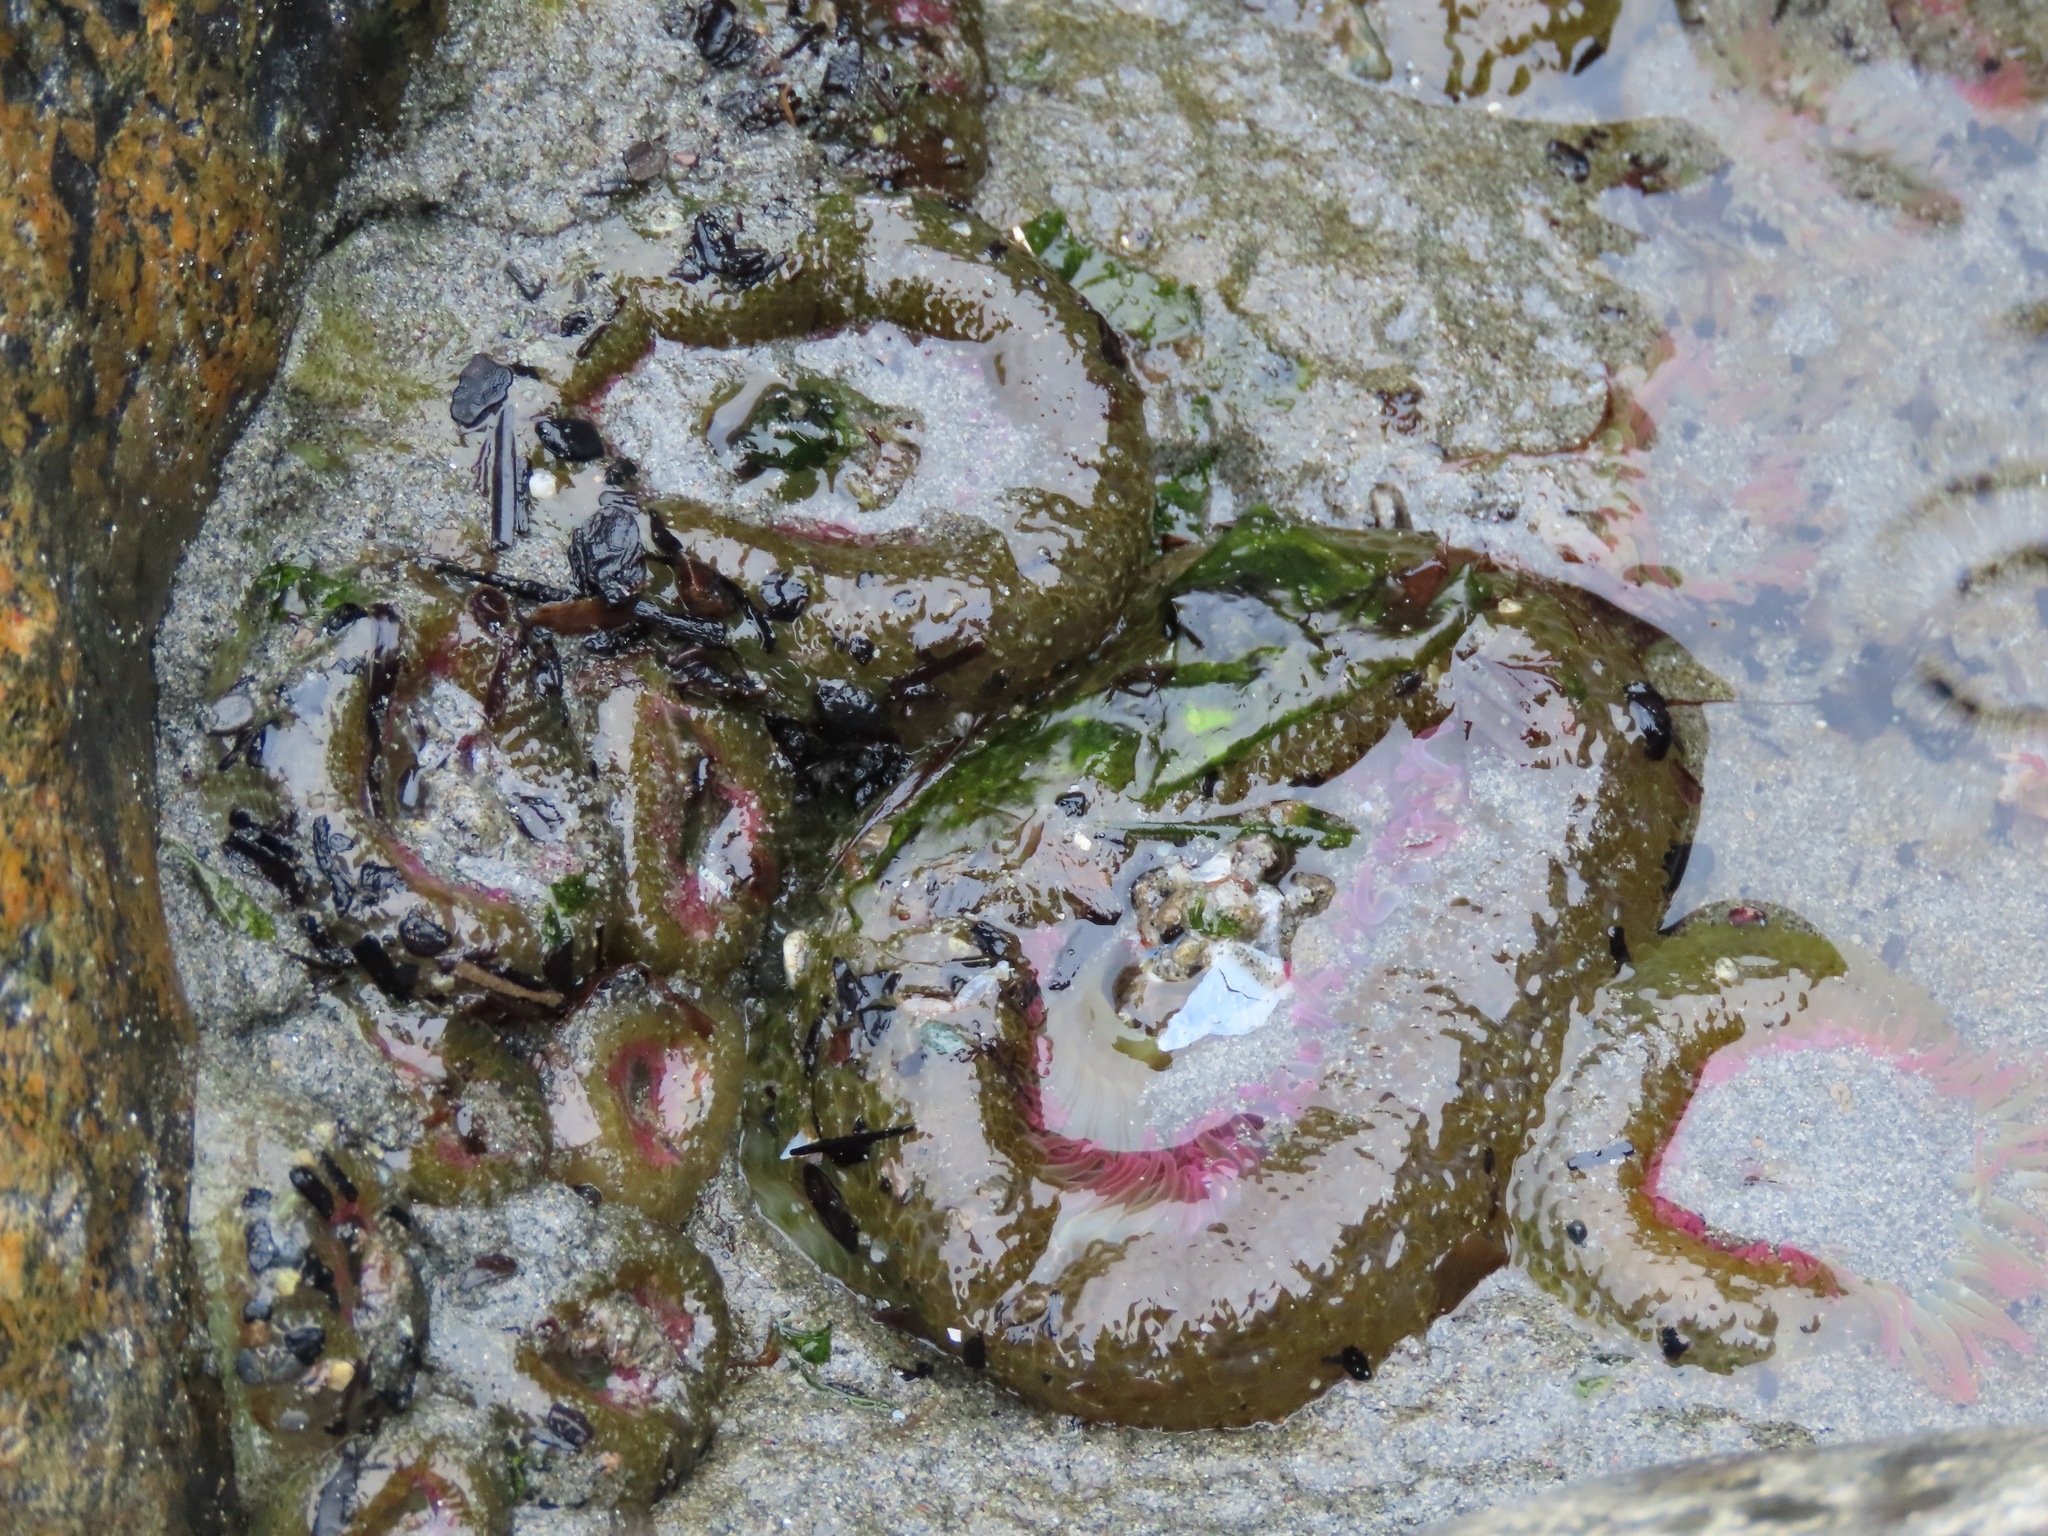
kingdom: Animalia
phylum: Cnidaria
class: Anthozoa
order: Actiniaria
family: Actiniidae
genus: Anthopleura
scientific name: Anthopleura elegantissima
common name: Clonal anemone
